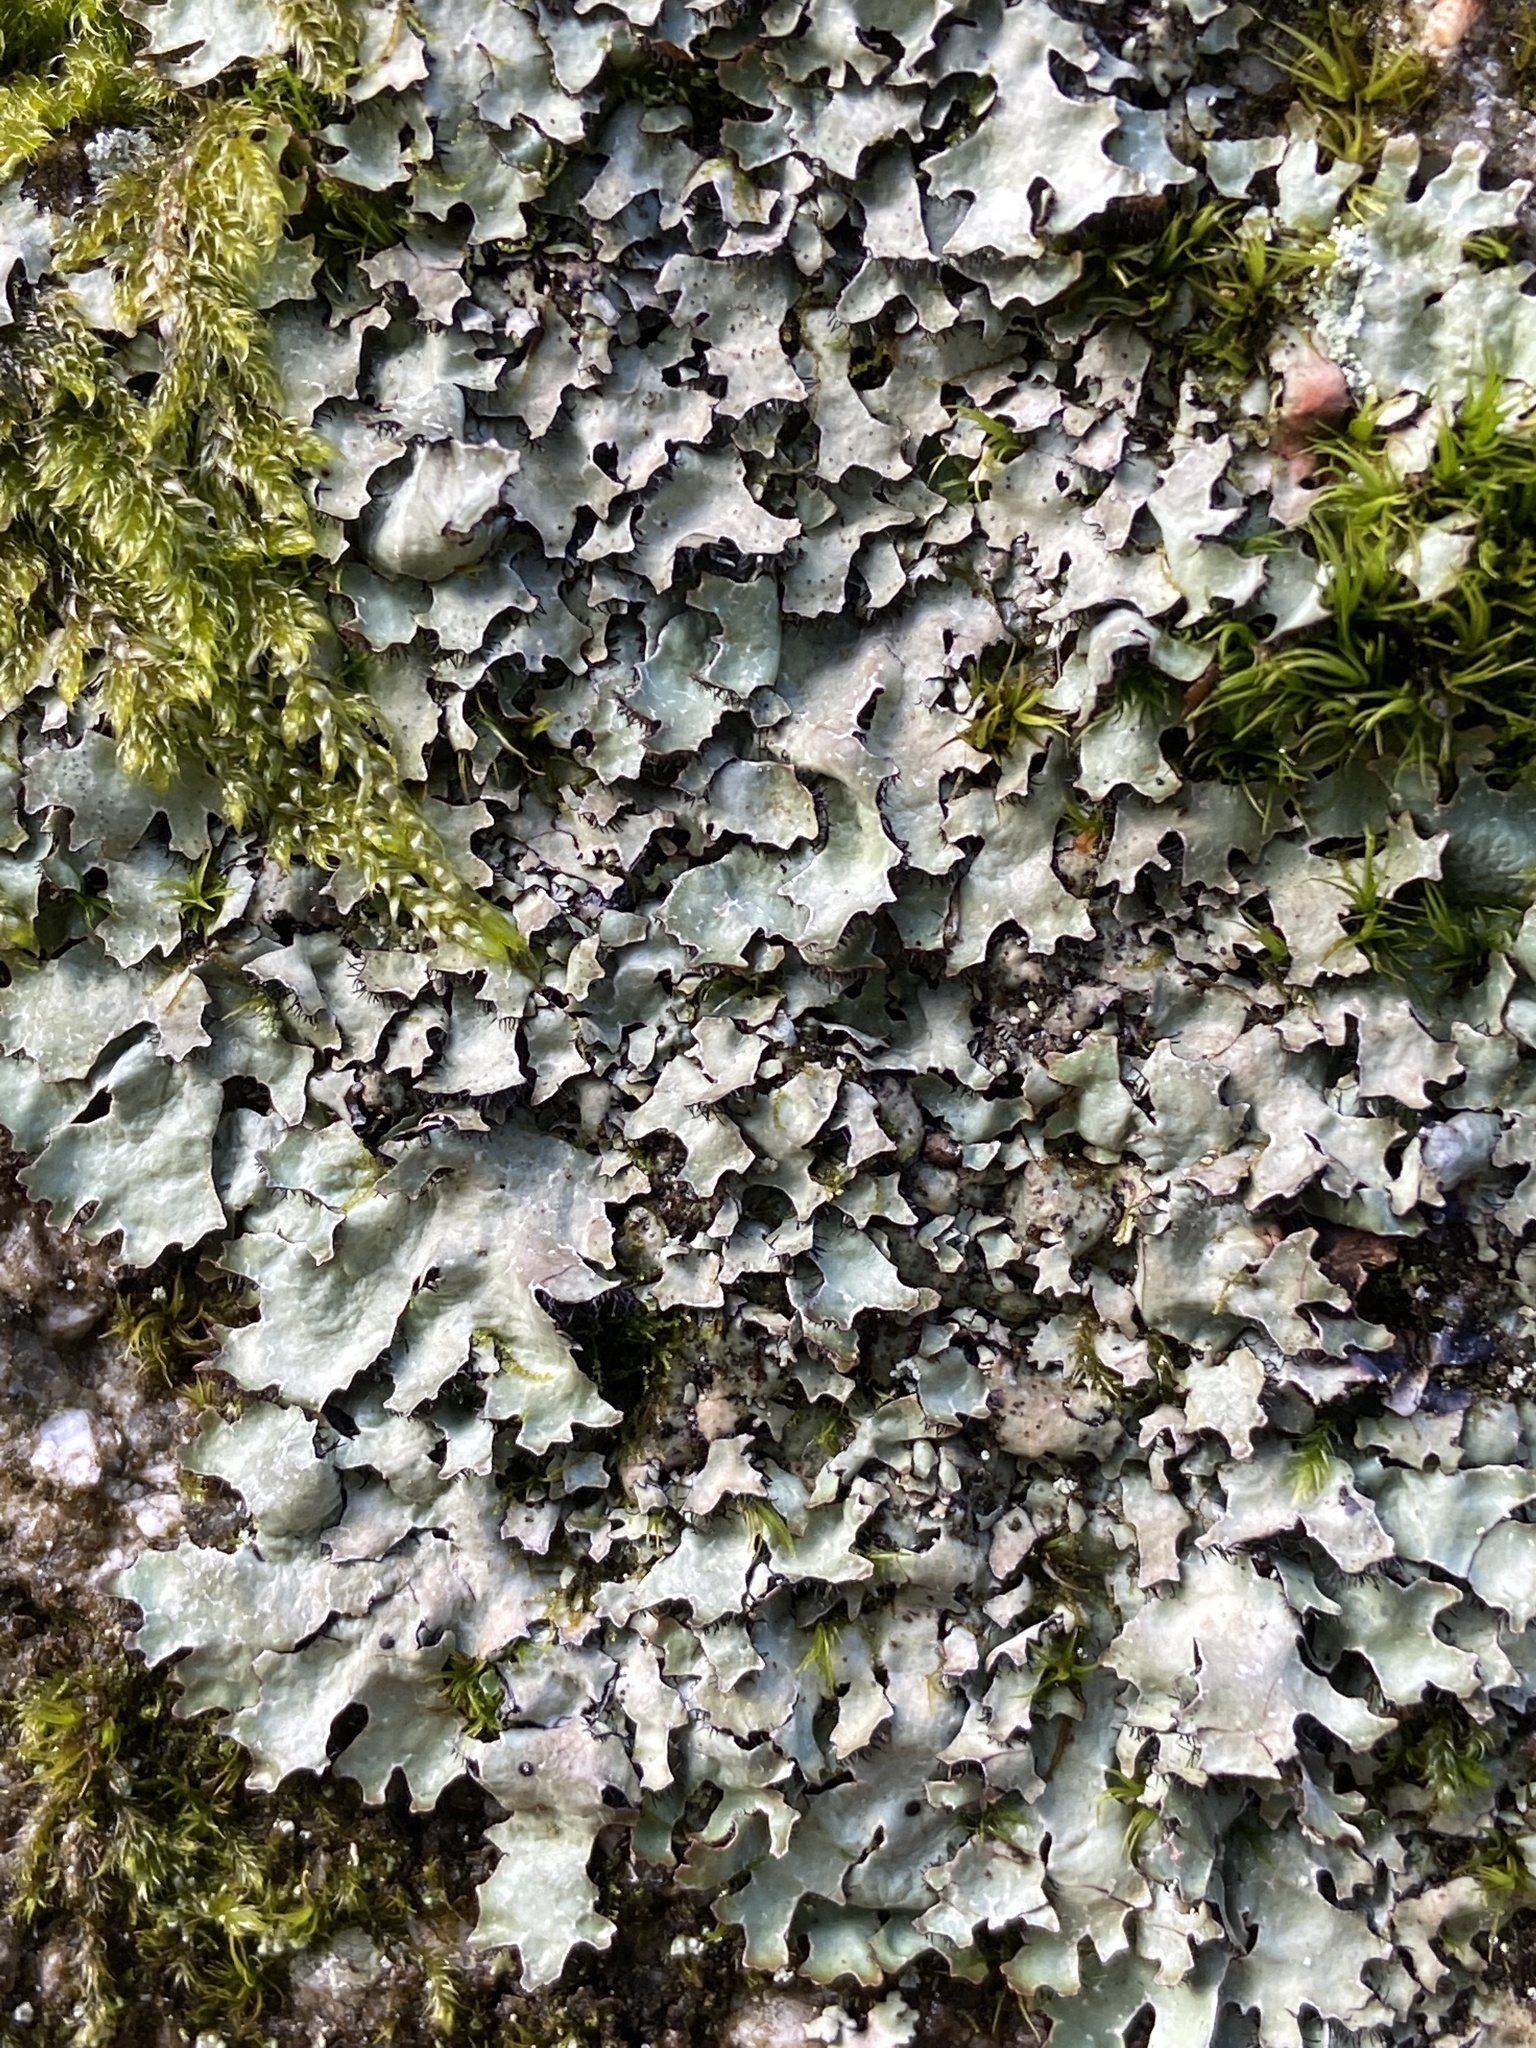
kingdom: Fungi
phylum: Ascomycota
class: Lecanoromycetes
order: Lecanorales
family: Parmeliaceae
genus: Parmelia
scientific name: Parmelia sulcata
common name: Netted shield lichen
